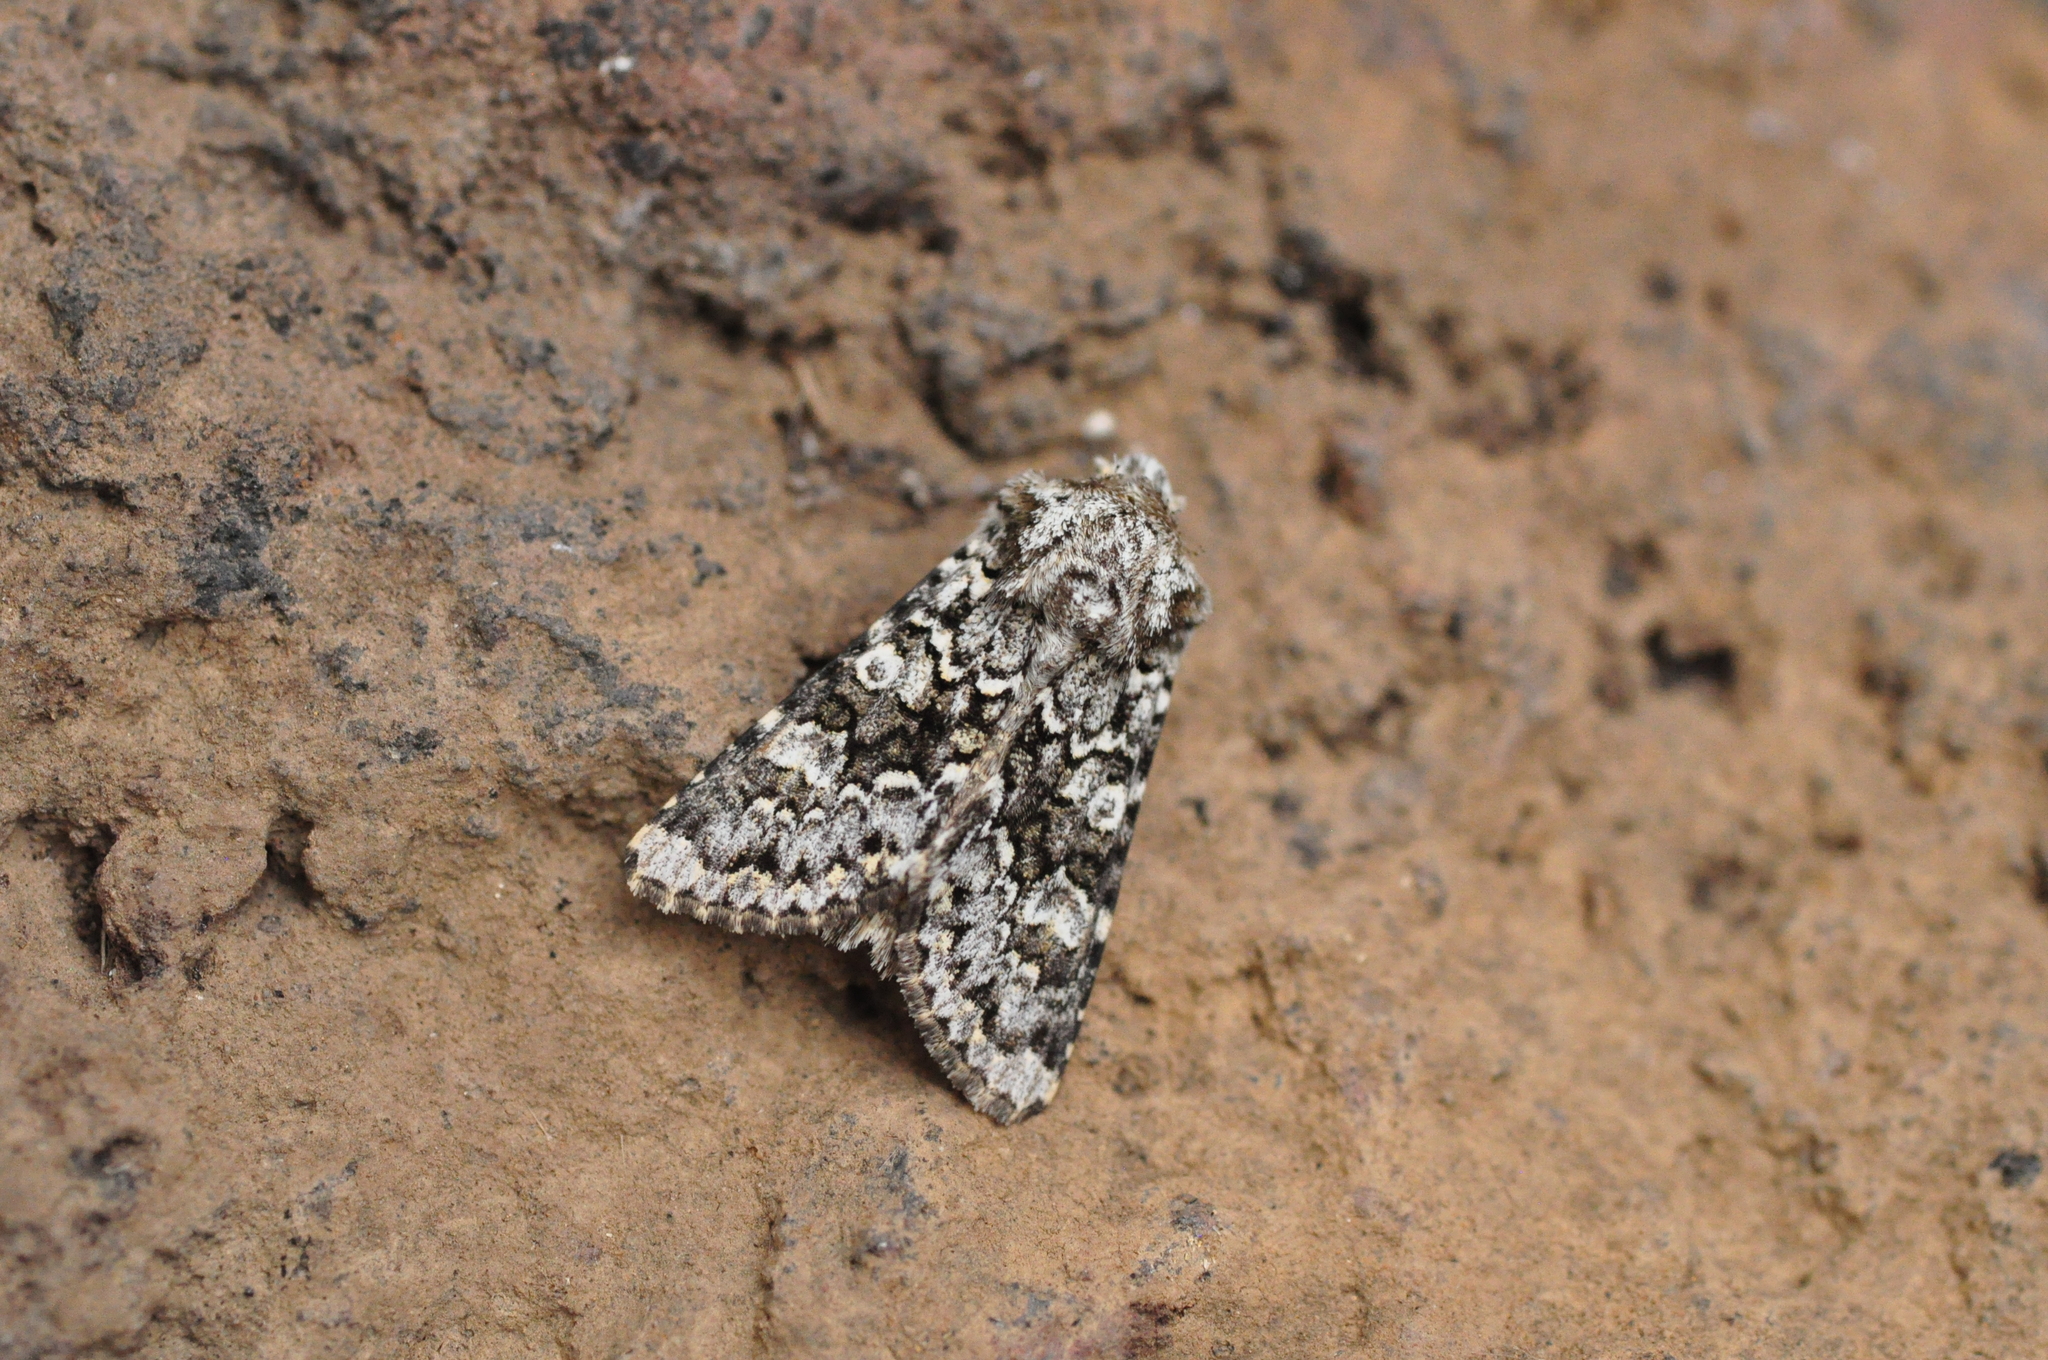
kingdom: Animalia
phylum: Arthropoda
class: Insecta
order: Lepidoptera
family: Noctuidae
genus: Hecatera
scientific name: Hecatera maderae
